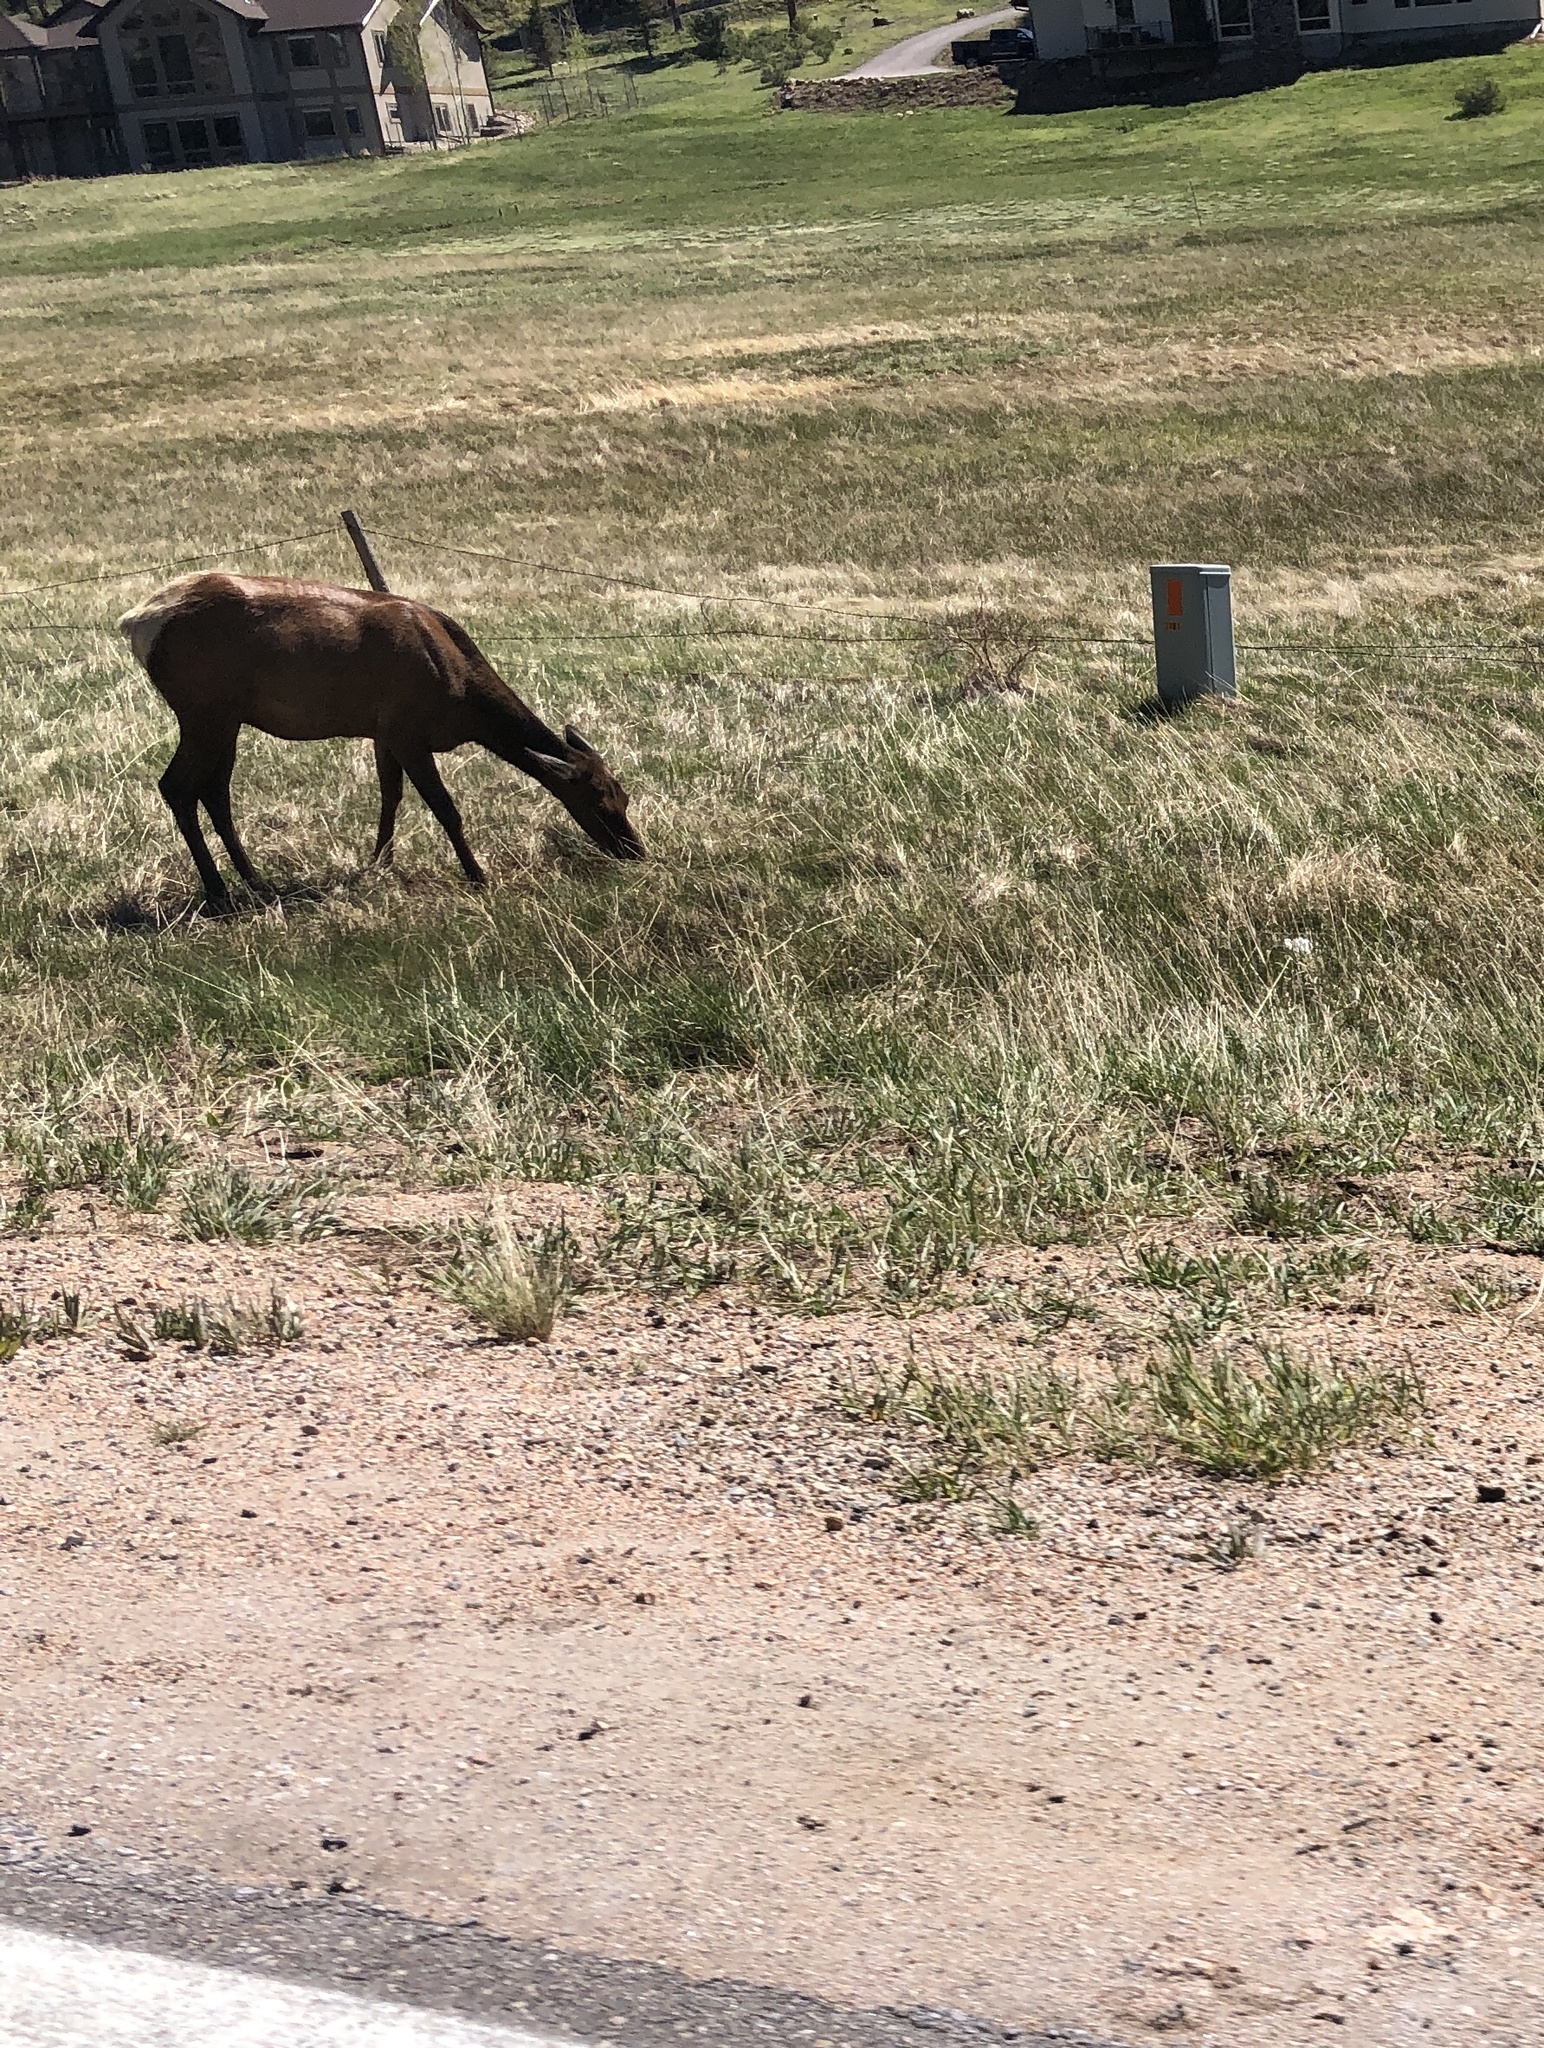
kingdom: Animalia
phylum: Chordata
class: Mammalia
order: Artiodactyla
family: Cervidae
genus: Cervus
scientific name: Cervus elaphus
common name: Red deer
